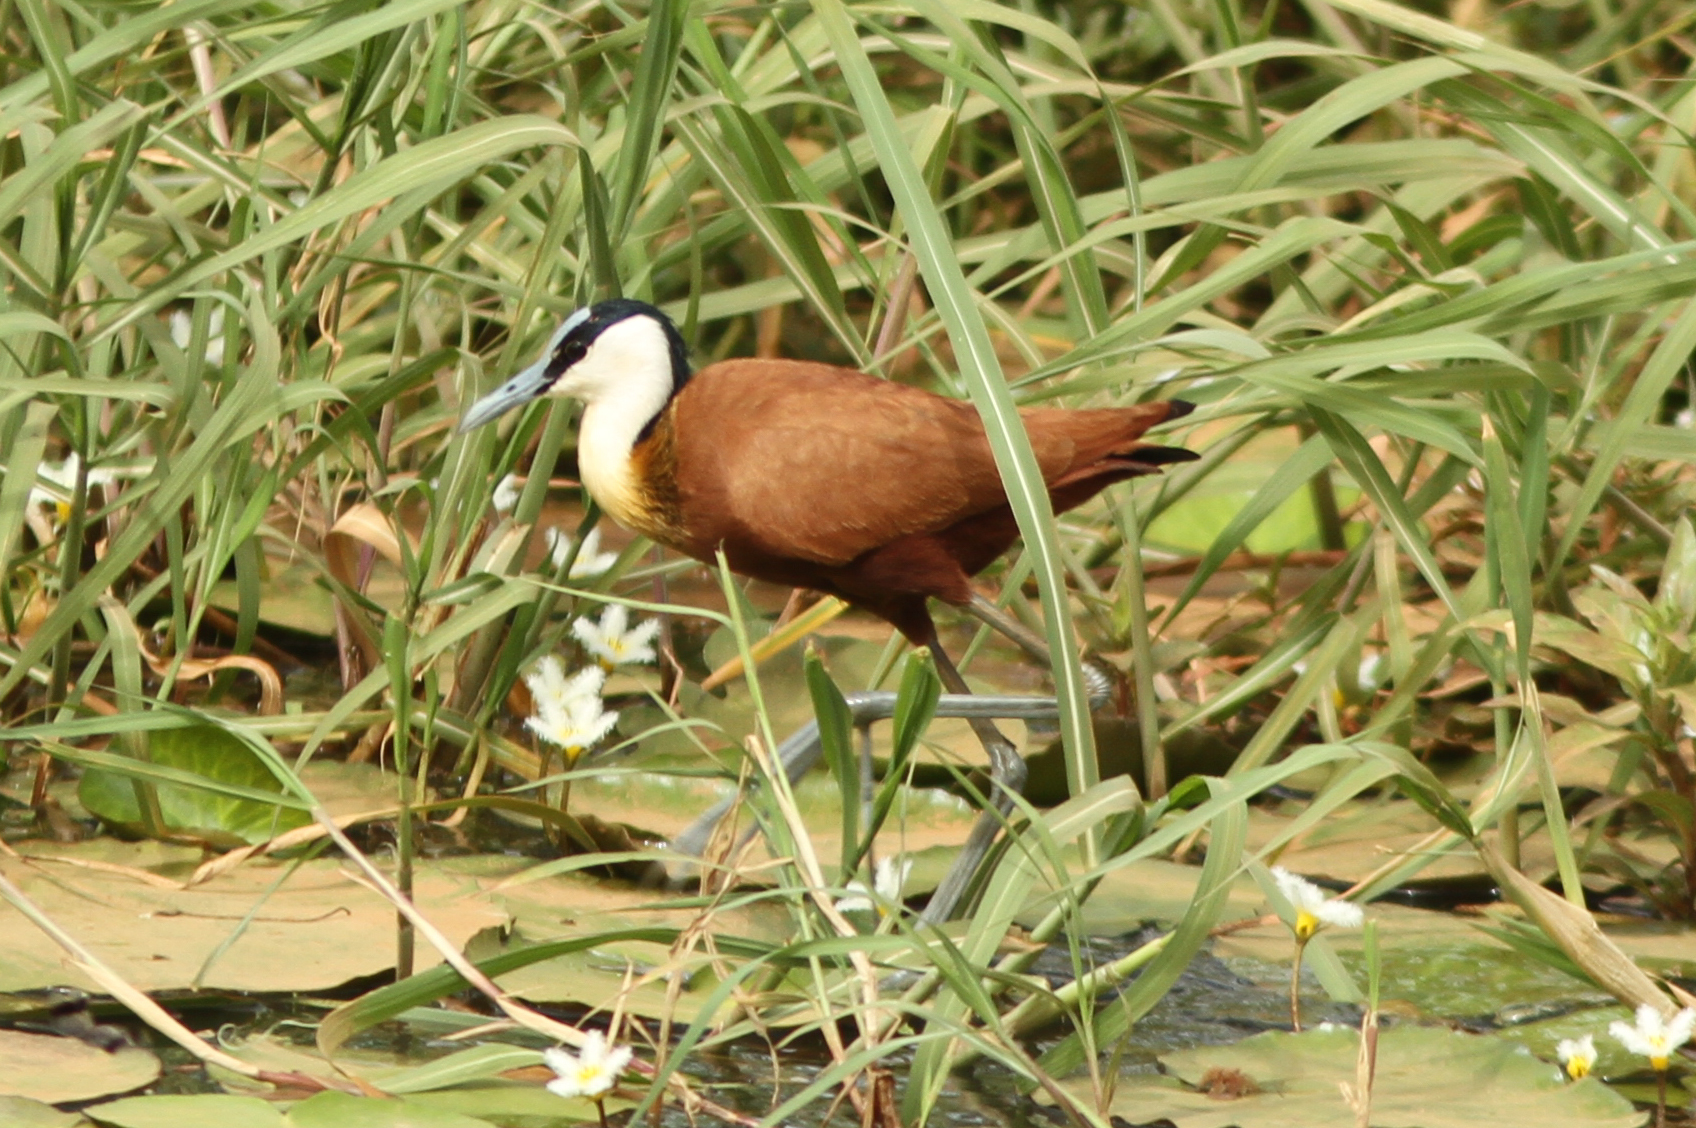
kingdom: Animalia
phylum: Chordata
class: Aves
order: Charadriiformes
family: Jacanidae
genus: Actophilornis
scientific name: Actophilornis africanus
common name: African jacana
